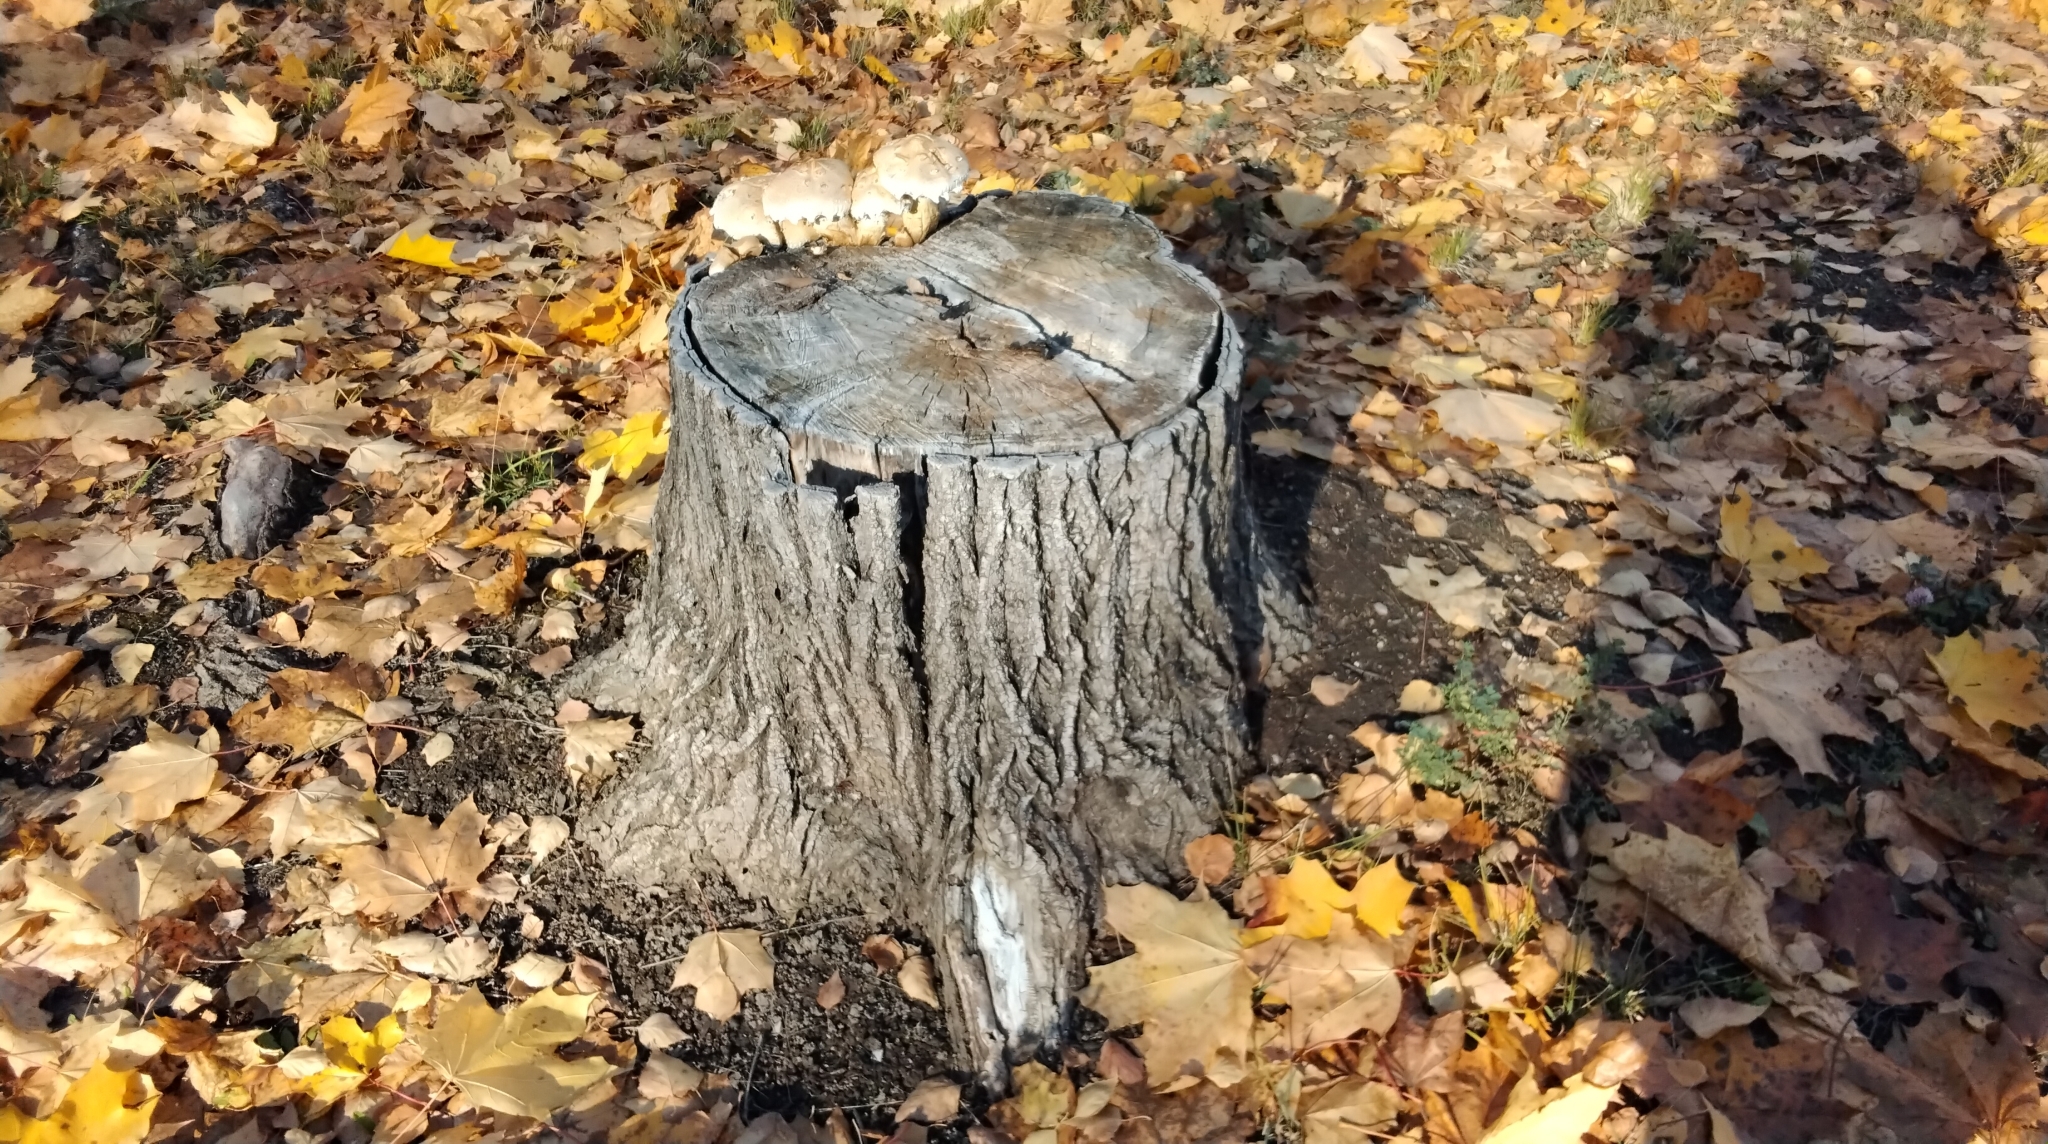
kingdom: Fungi
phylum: Basidiomycota
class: Agaricomycetes
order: Agaricales
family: Strophariaceae
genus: Pholiota
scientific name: Pholiota populnea
